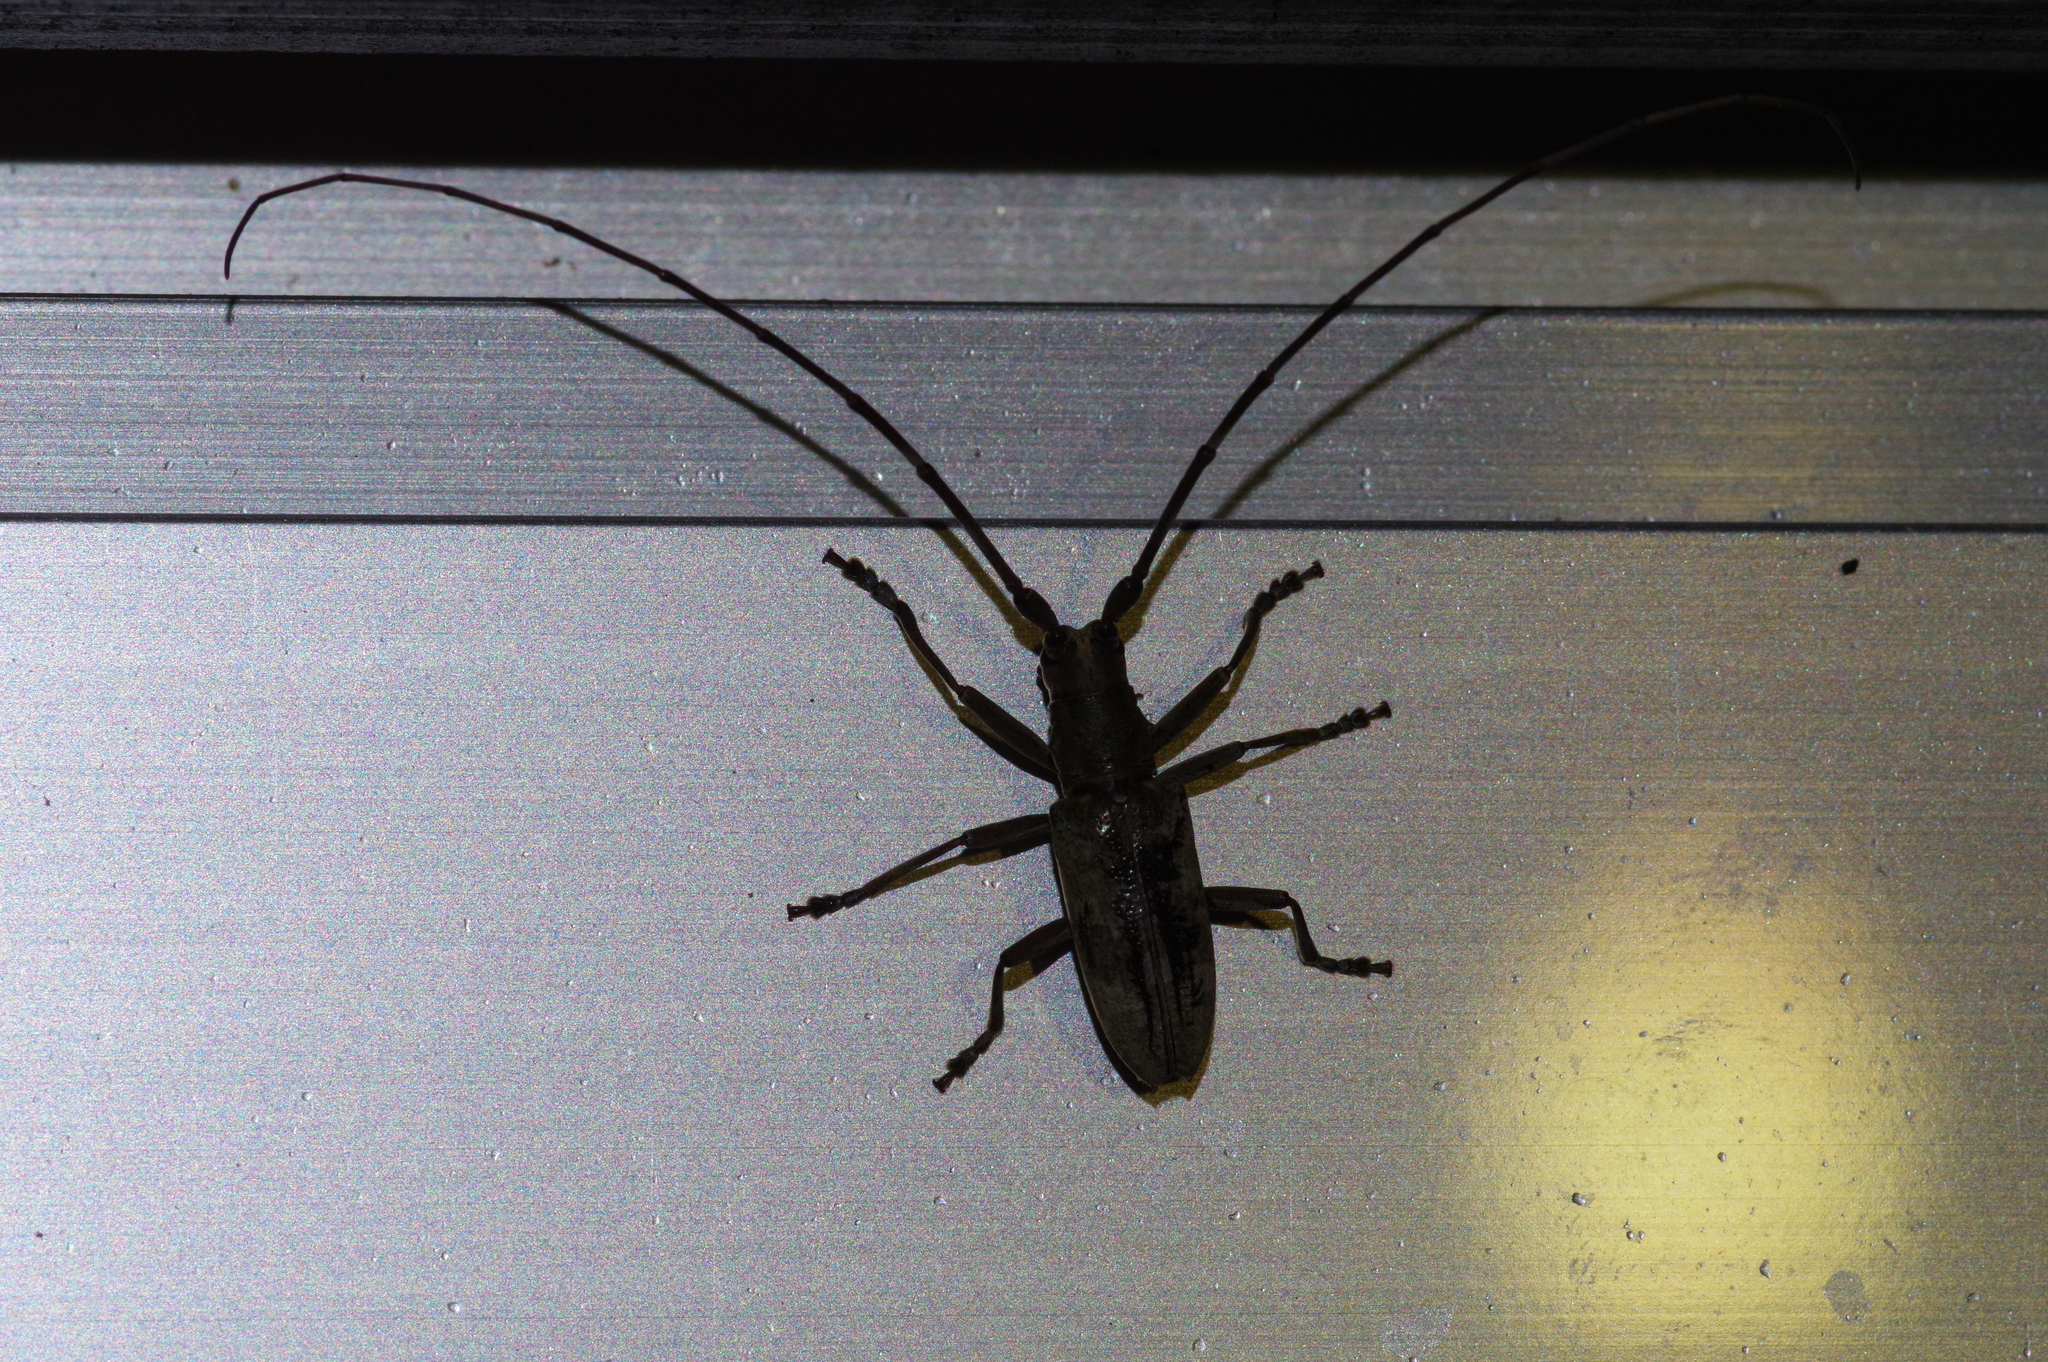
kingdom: Animalia
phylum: Arthropoda
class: Insecta
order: Coleoptera
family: Cerambycidae
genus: Psacothea
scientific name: Psacothea hilaris
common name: Yellow-spotted longicorn beetle
